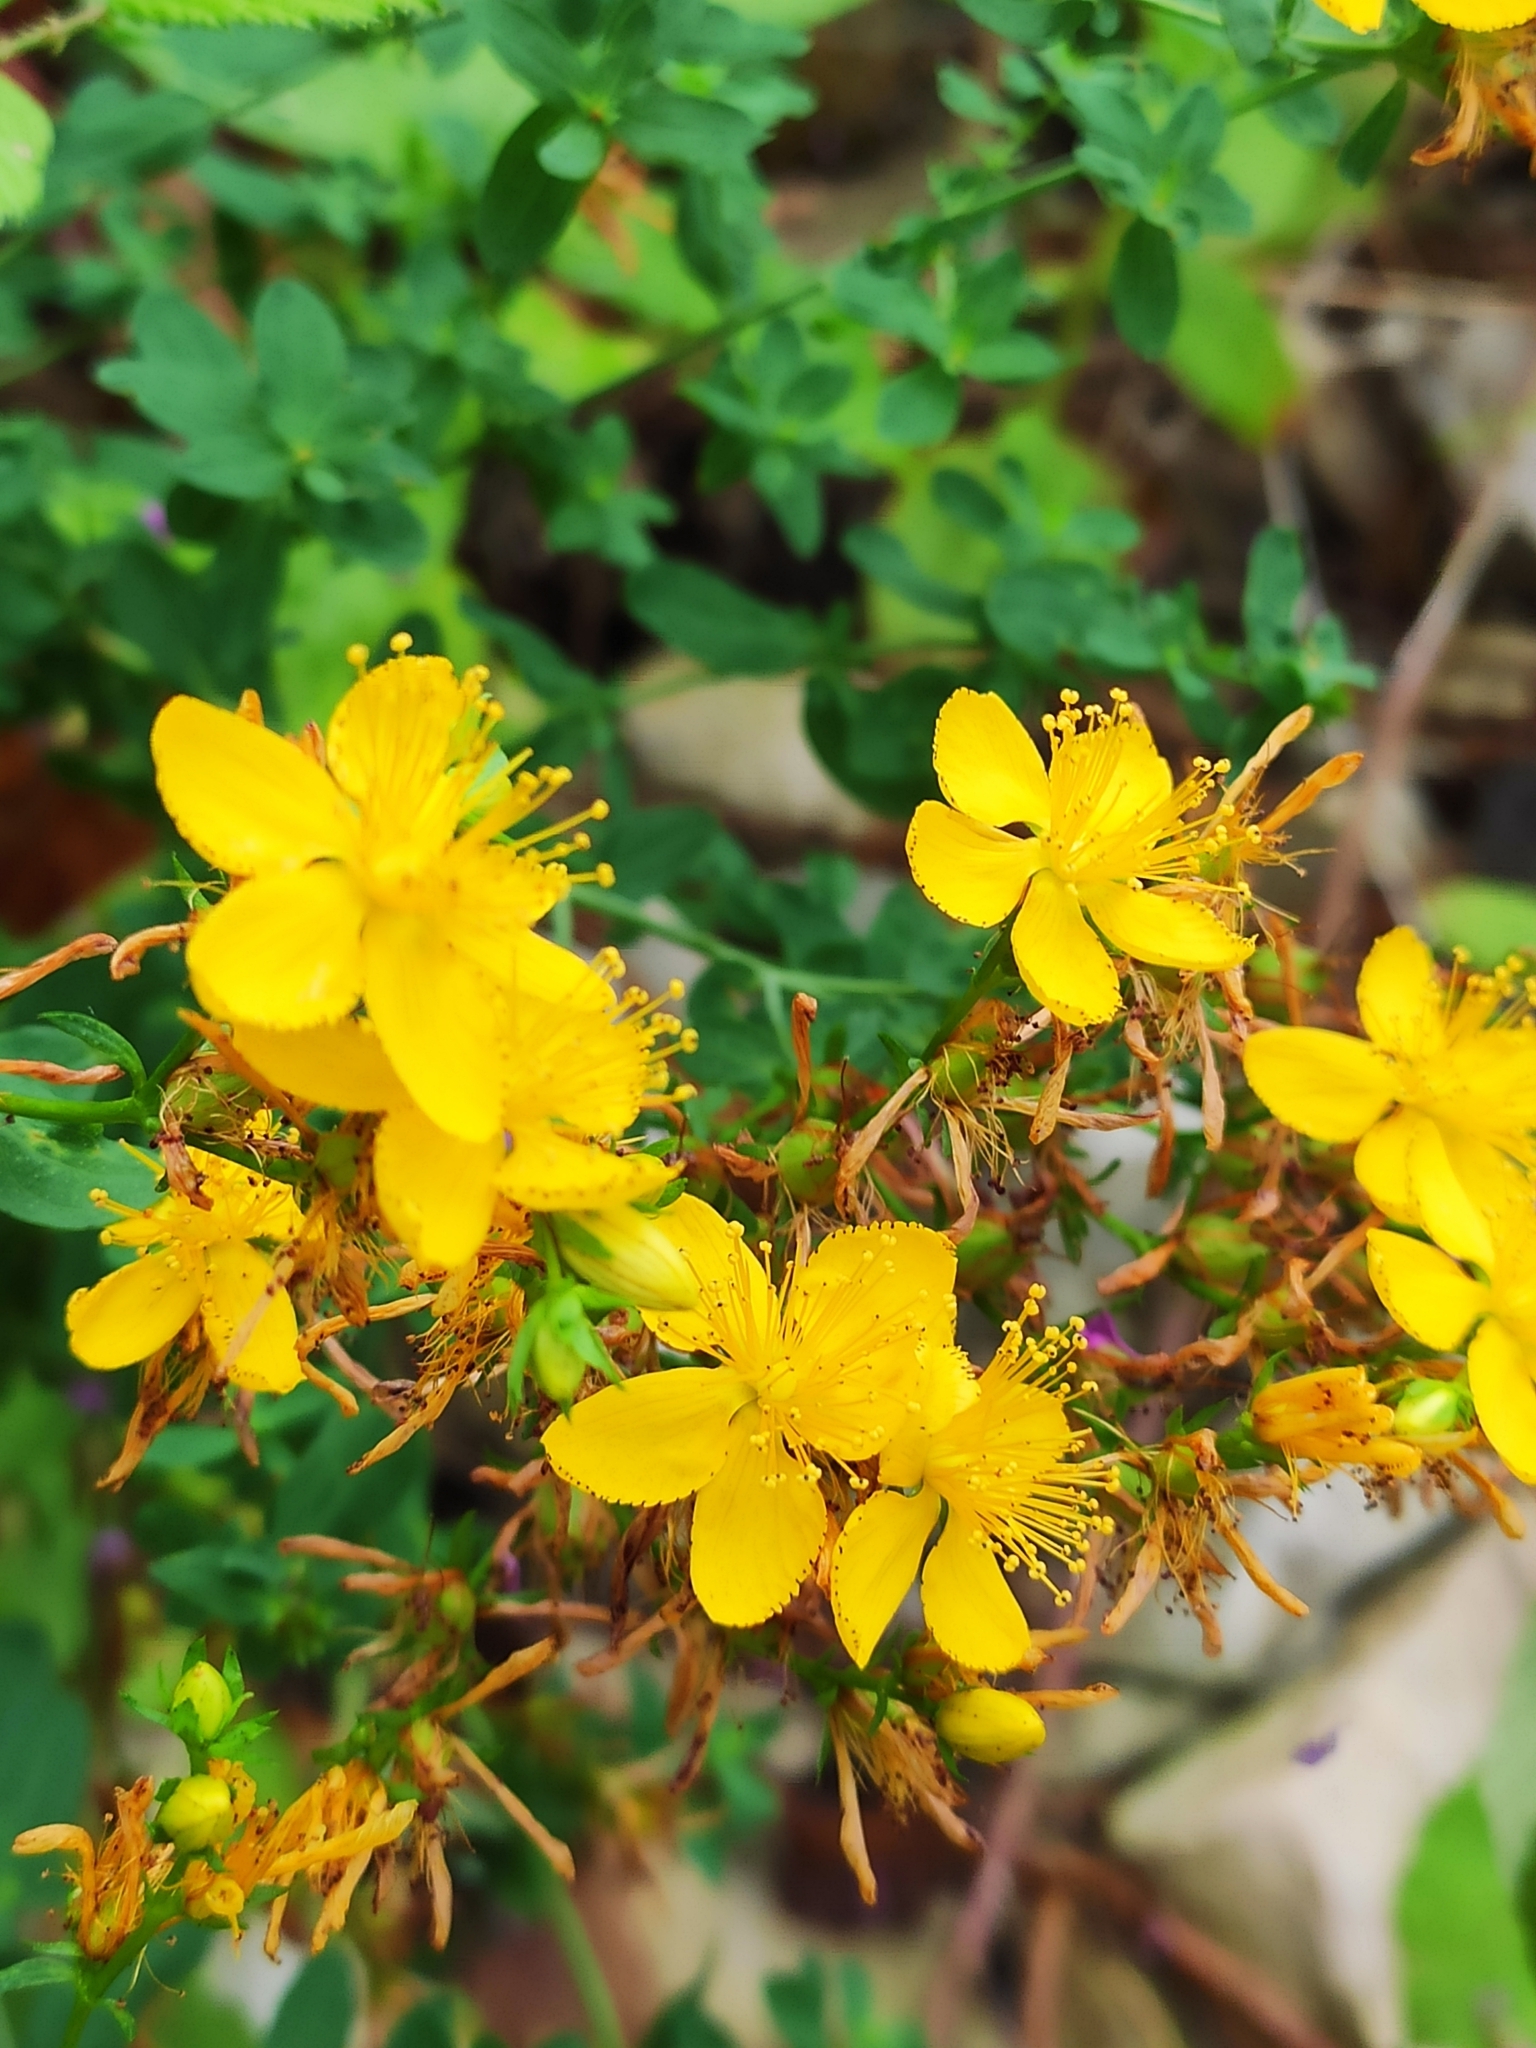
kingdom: Plantae
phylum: Tracheophyta
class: Magnoliopsida
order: Malpighiales
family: Hypericaceae
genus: Hypericum
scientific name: Hypericum perforatum
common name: Common st. johnswort
